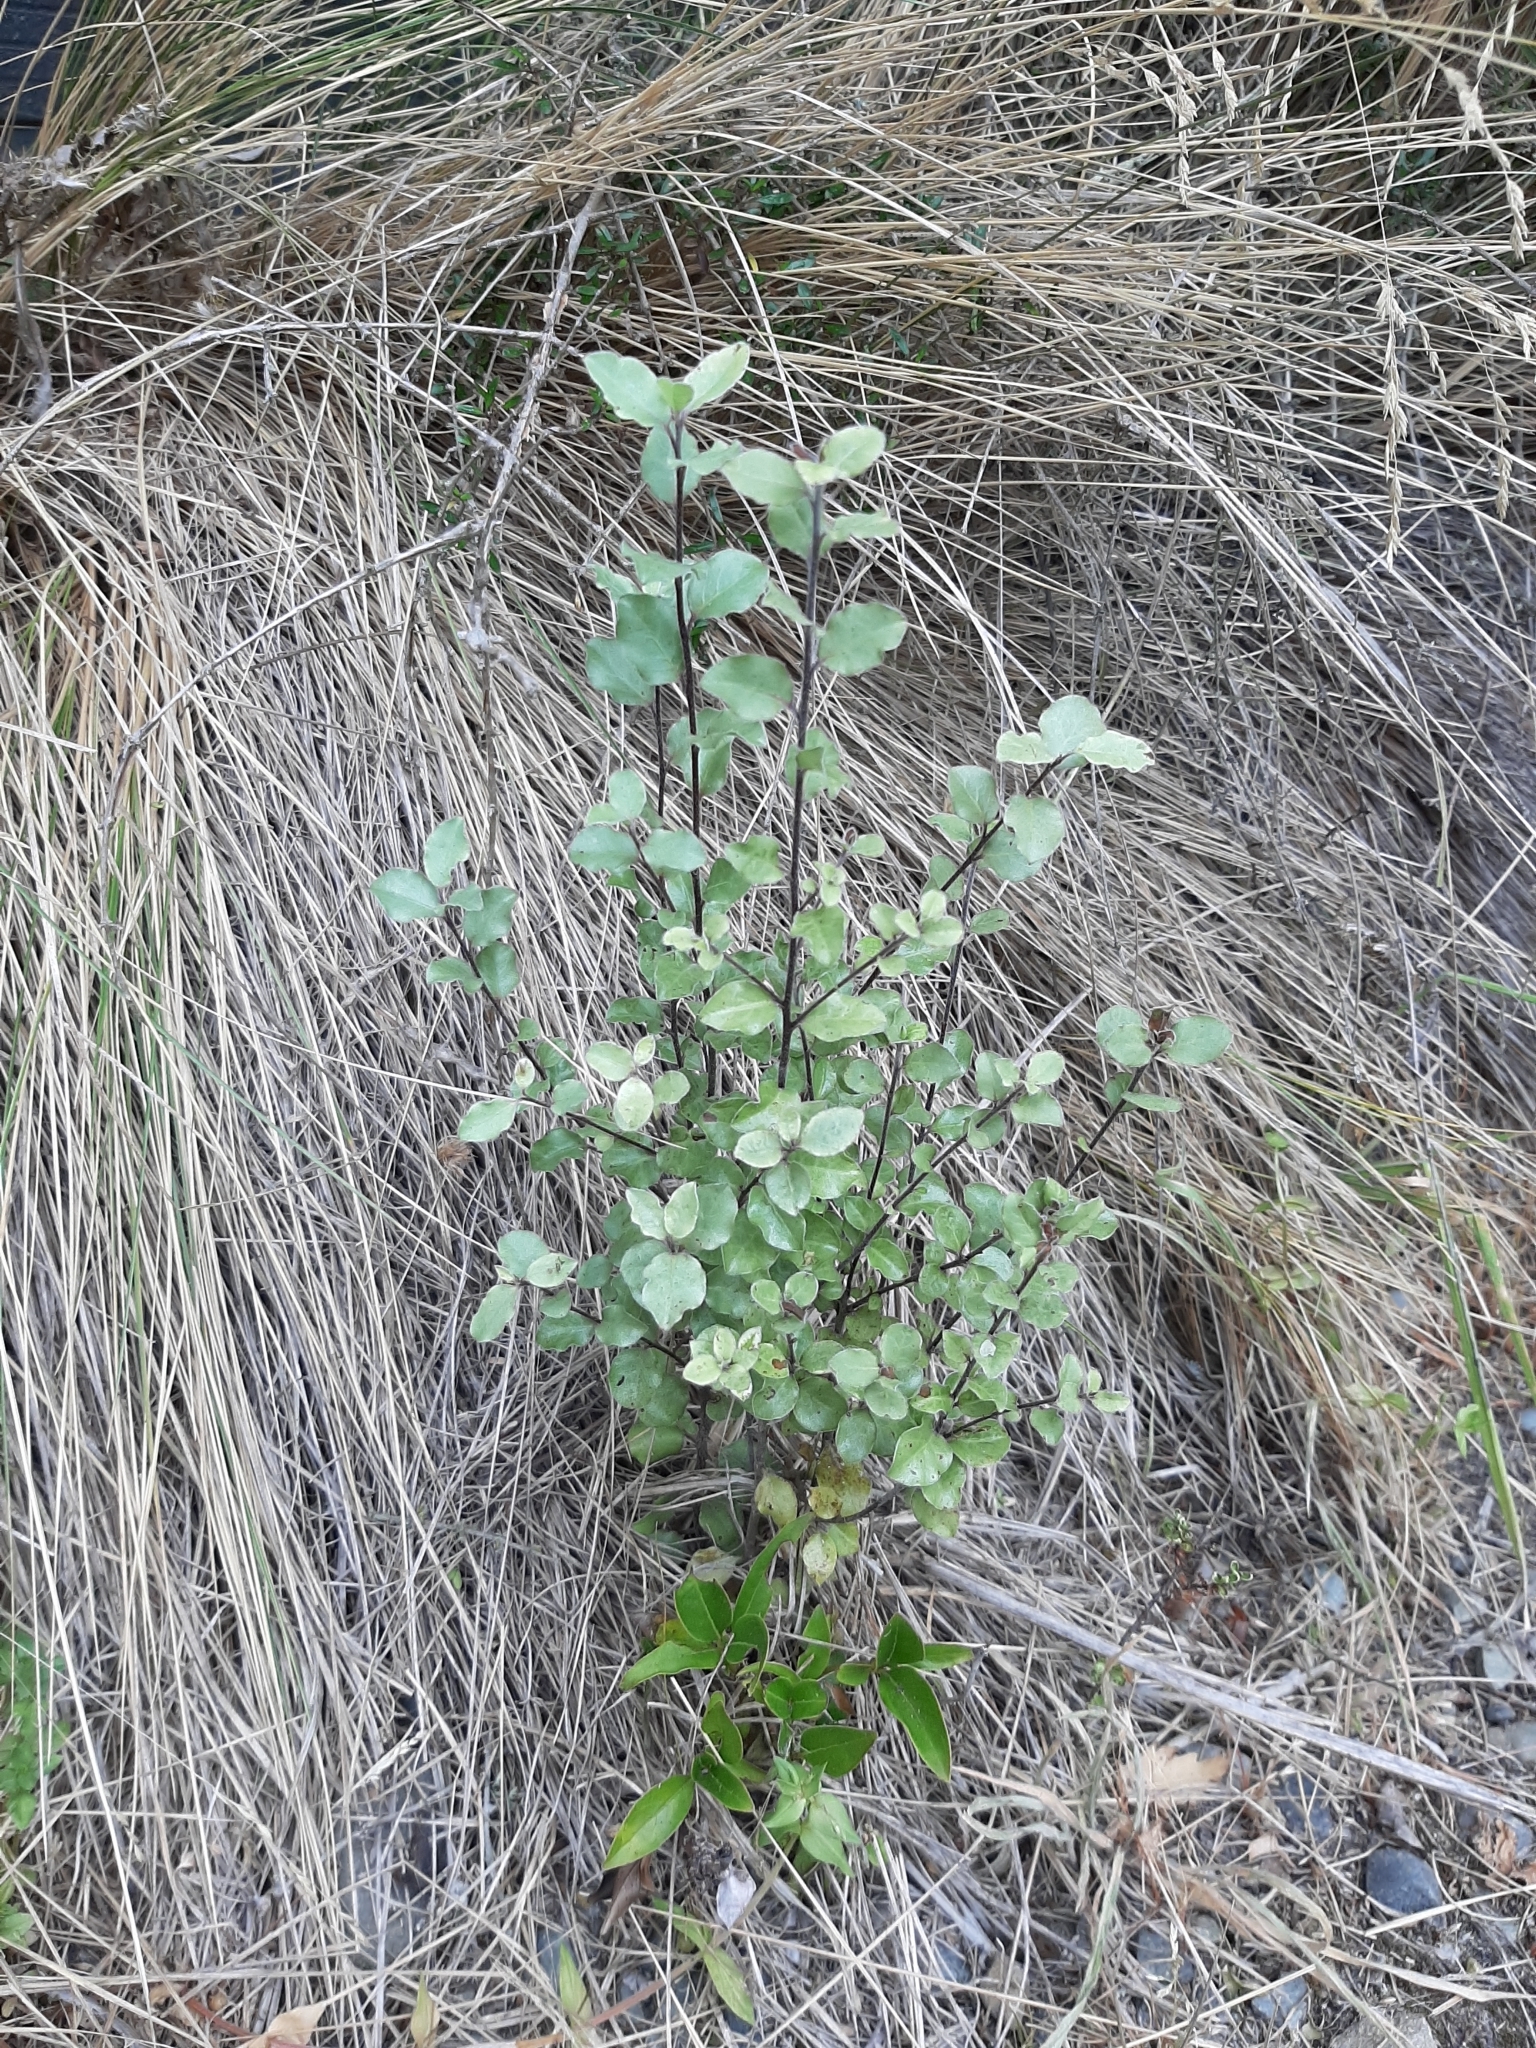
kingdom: Plantae
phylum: Tracheophyta
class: Magnoliopsida
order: Apiales
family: Pittosporaceae
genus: Pittosporum
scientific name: Pittosporum tenuifolium
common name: Kohuhu
